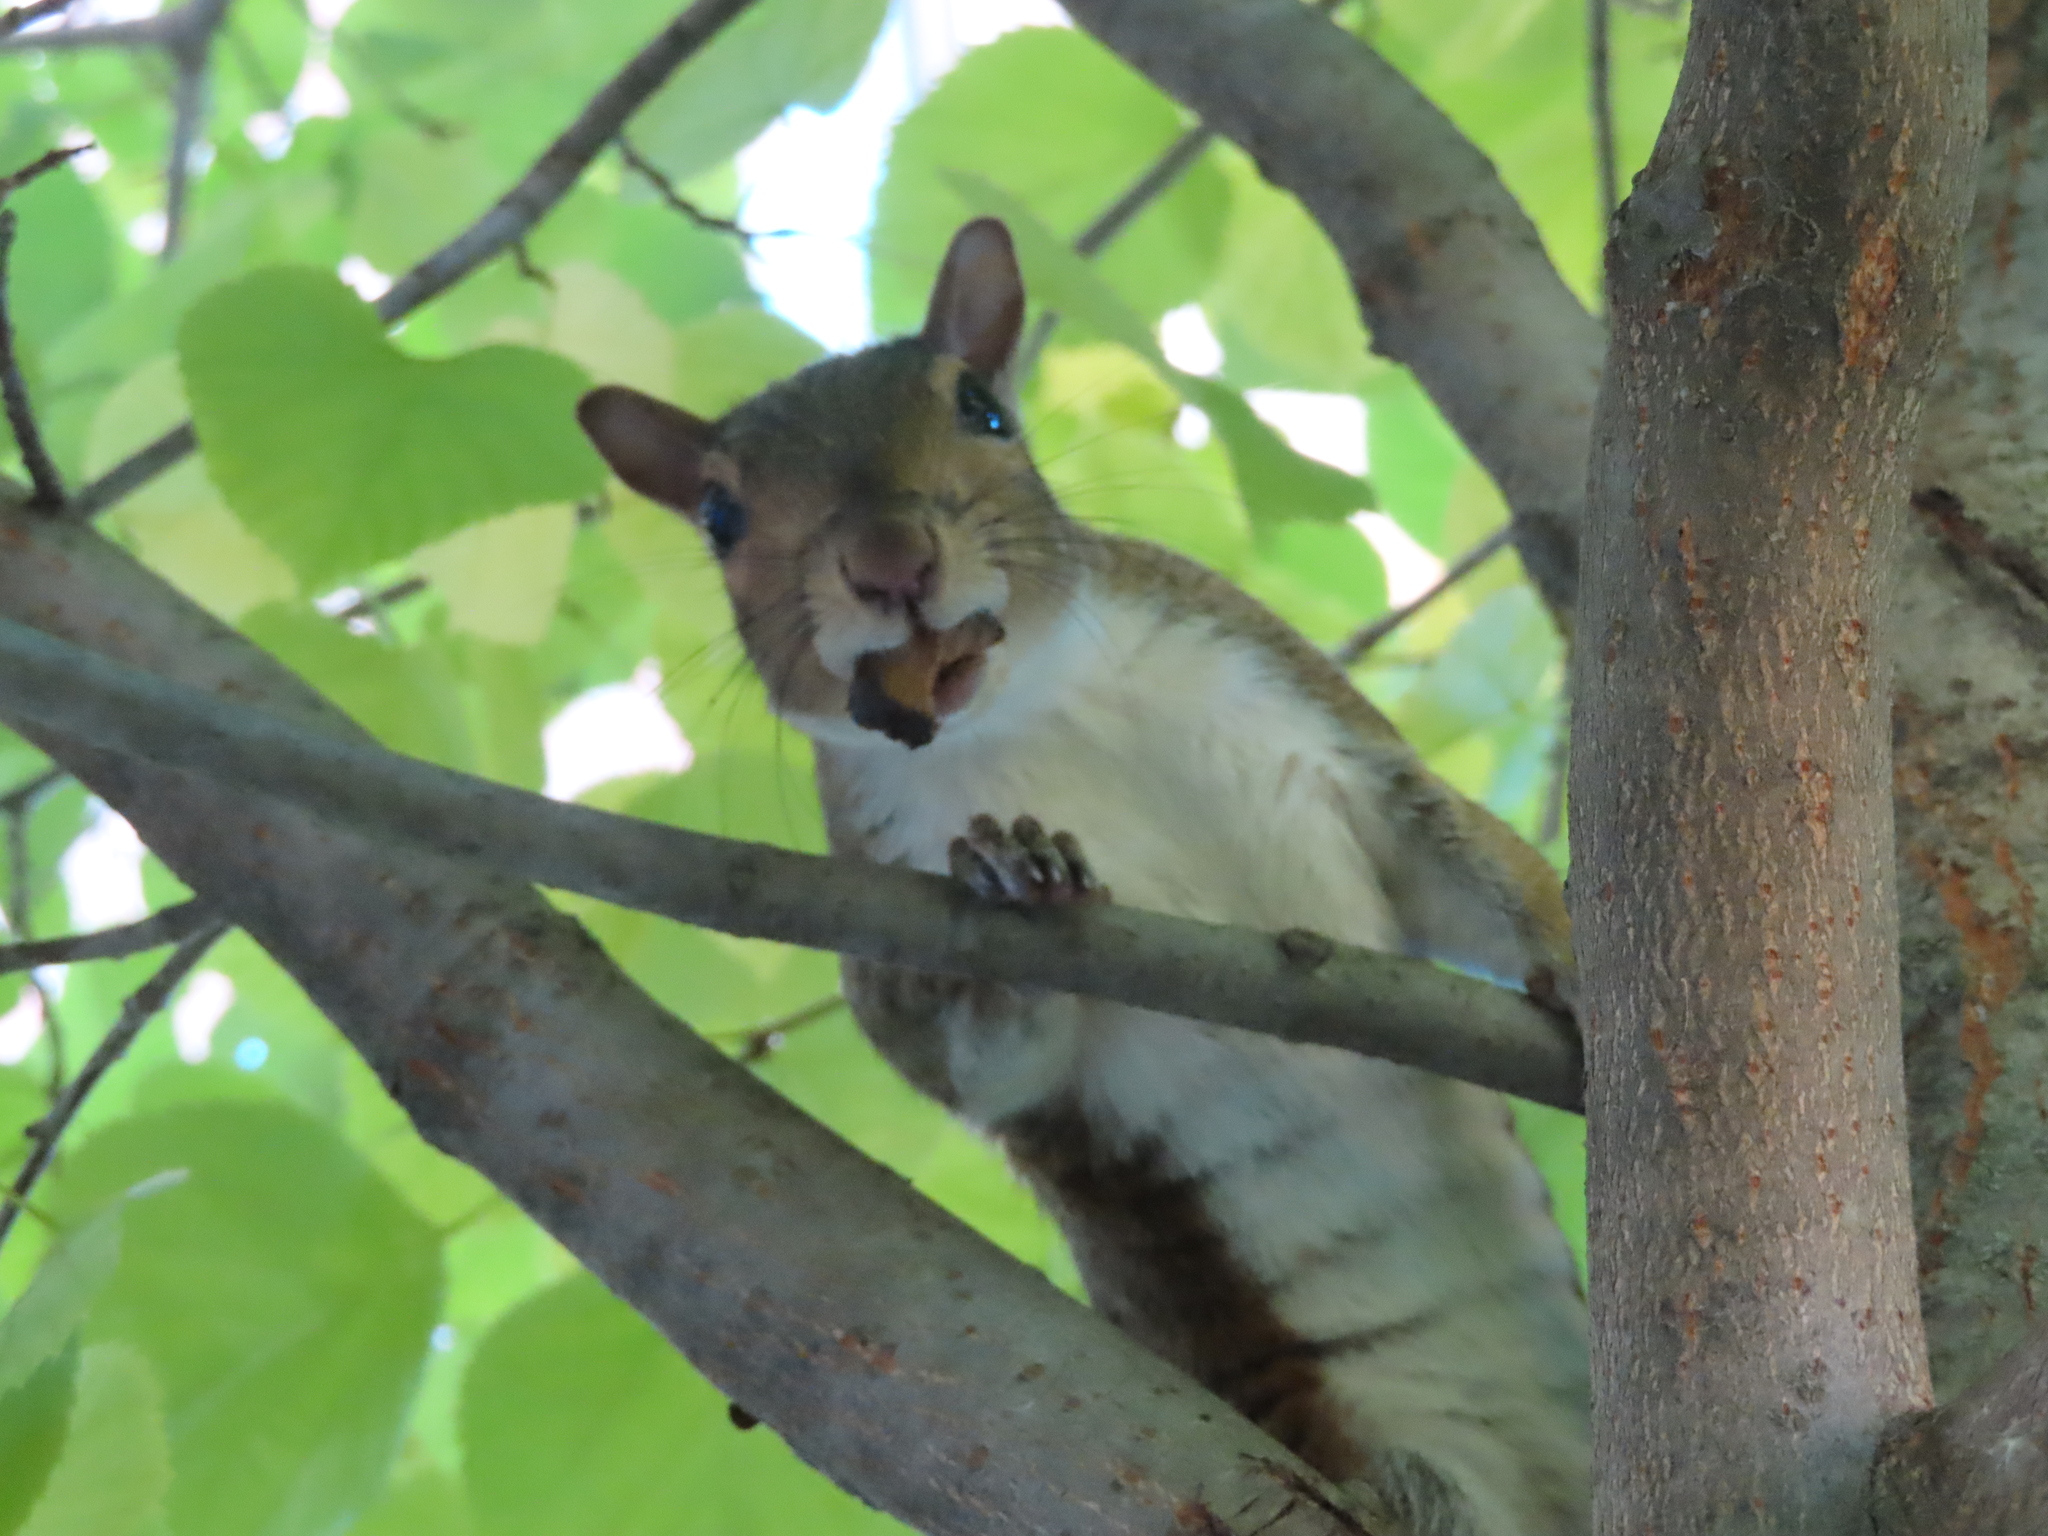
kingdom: Animalia
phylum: Chordata
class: Mammalia
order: Rodentia
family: Sciuridae
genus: Sciurus
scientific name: Sciurus carolinensis
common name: Eastern gray squirrel
